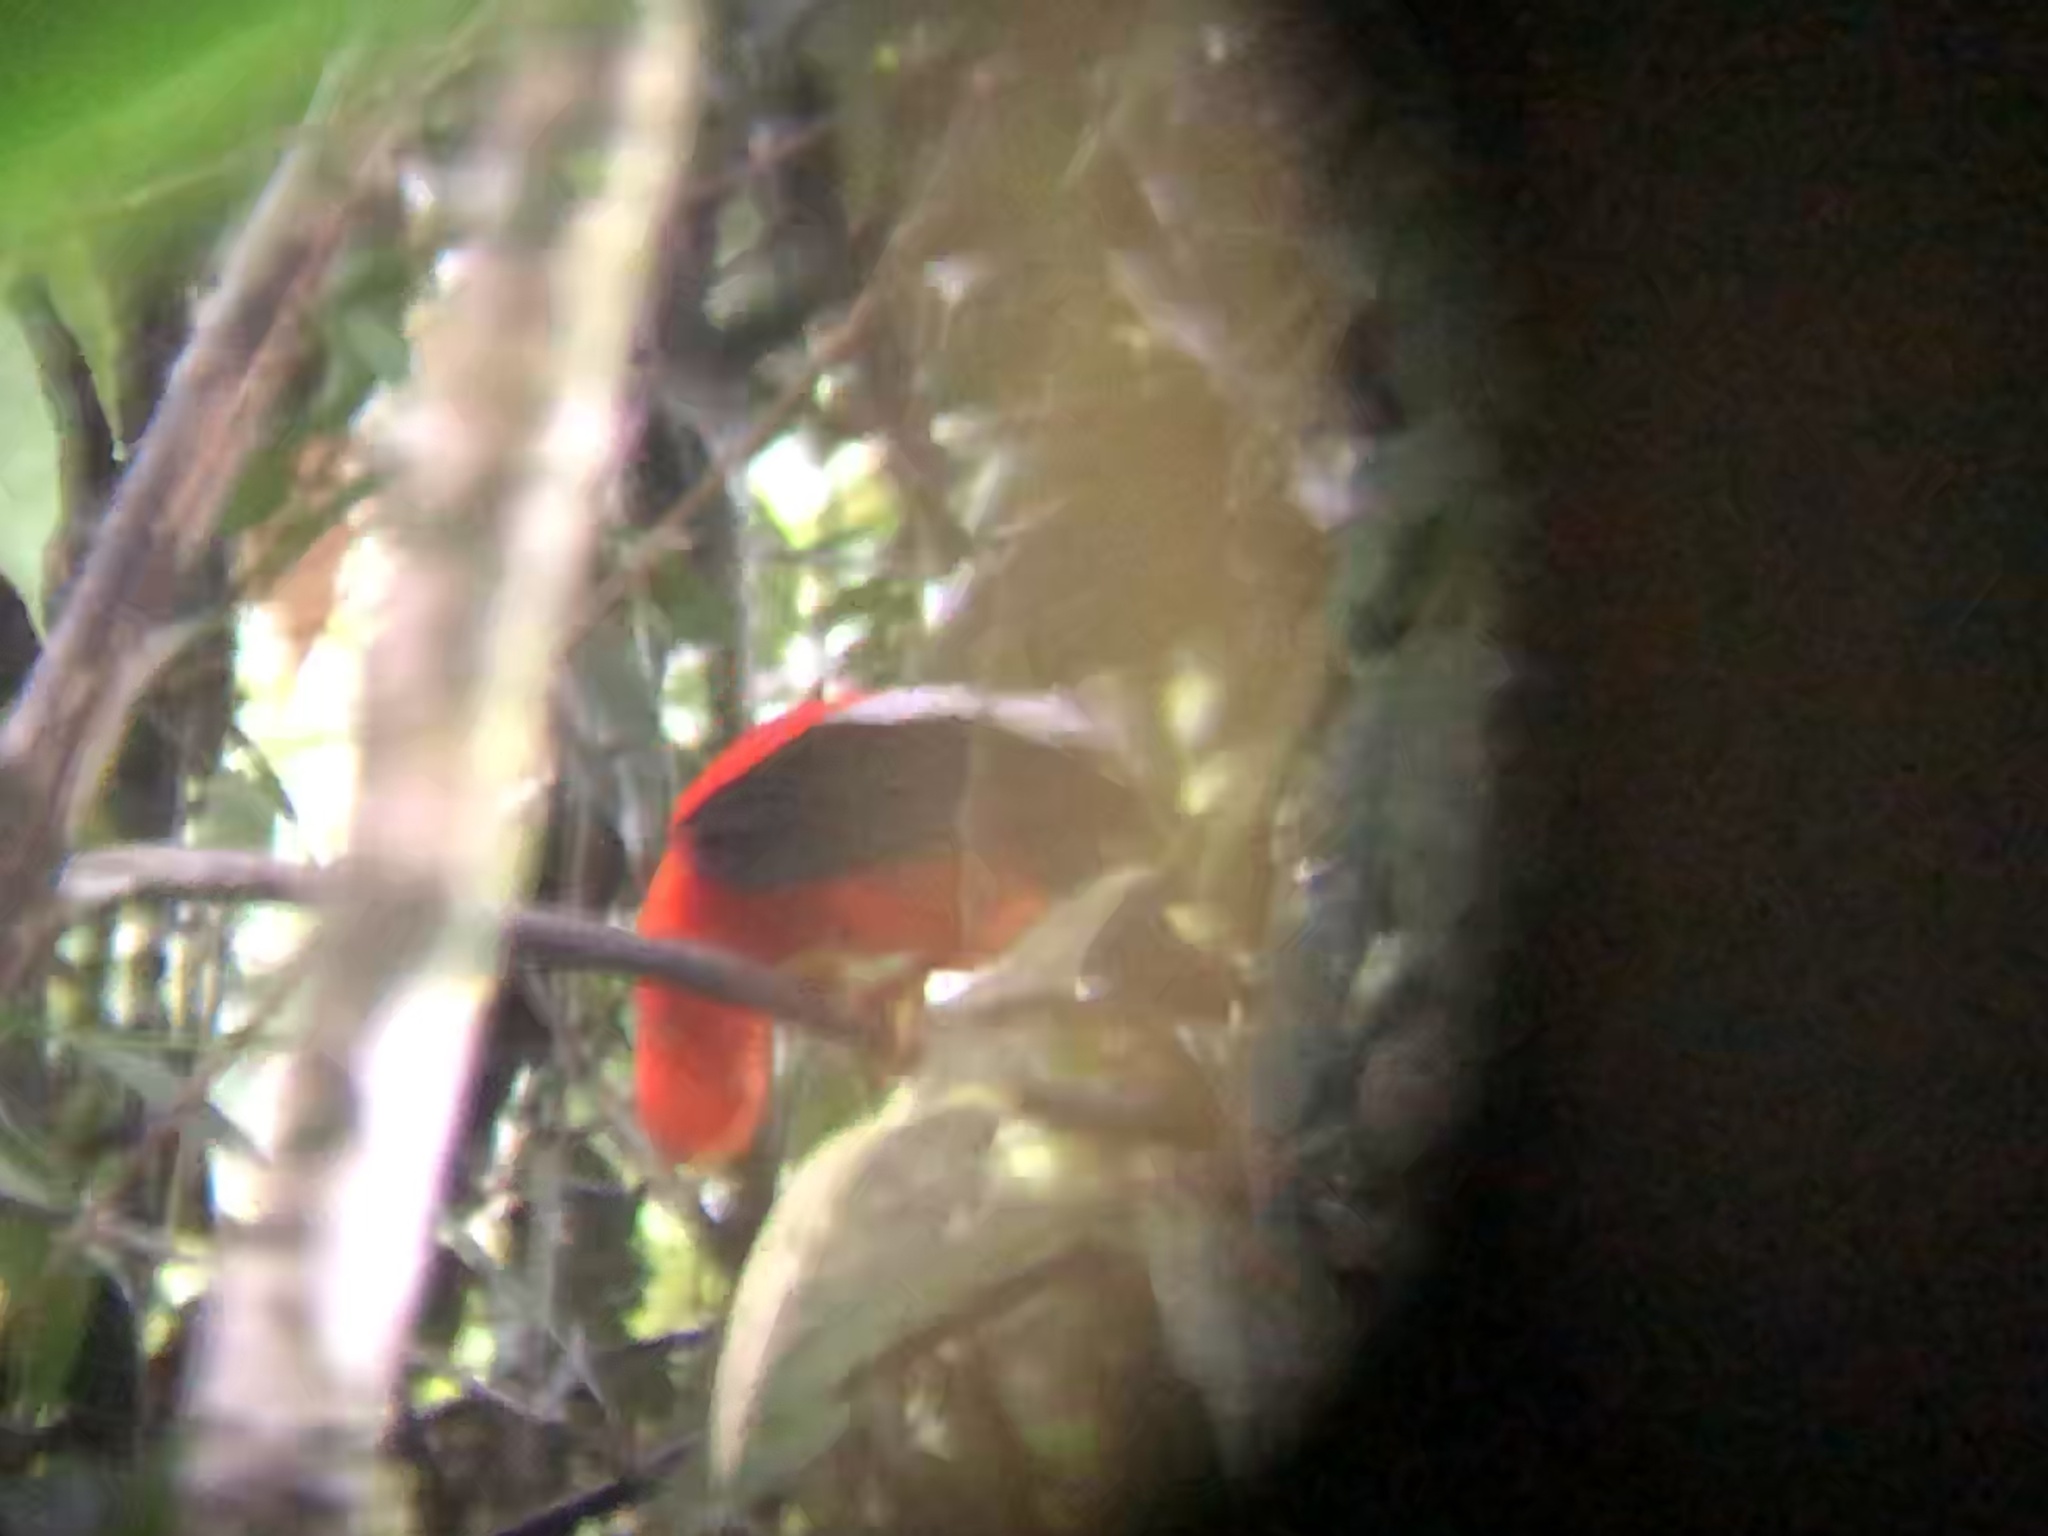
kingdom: Animalia
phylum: Chordata
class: Aves
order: Passeriformes
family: Cotingidae
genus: Rupicola
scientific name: Rupicola peruvianus
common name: Andean cock-of-the-rock
